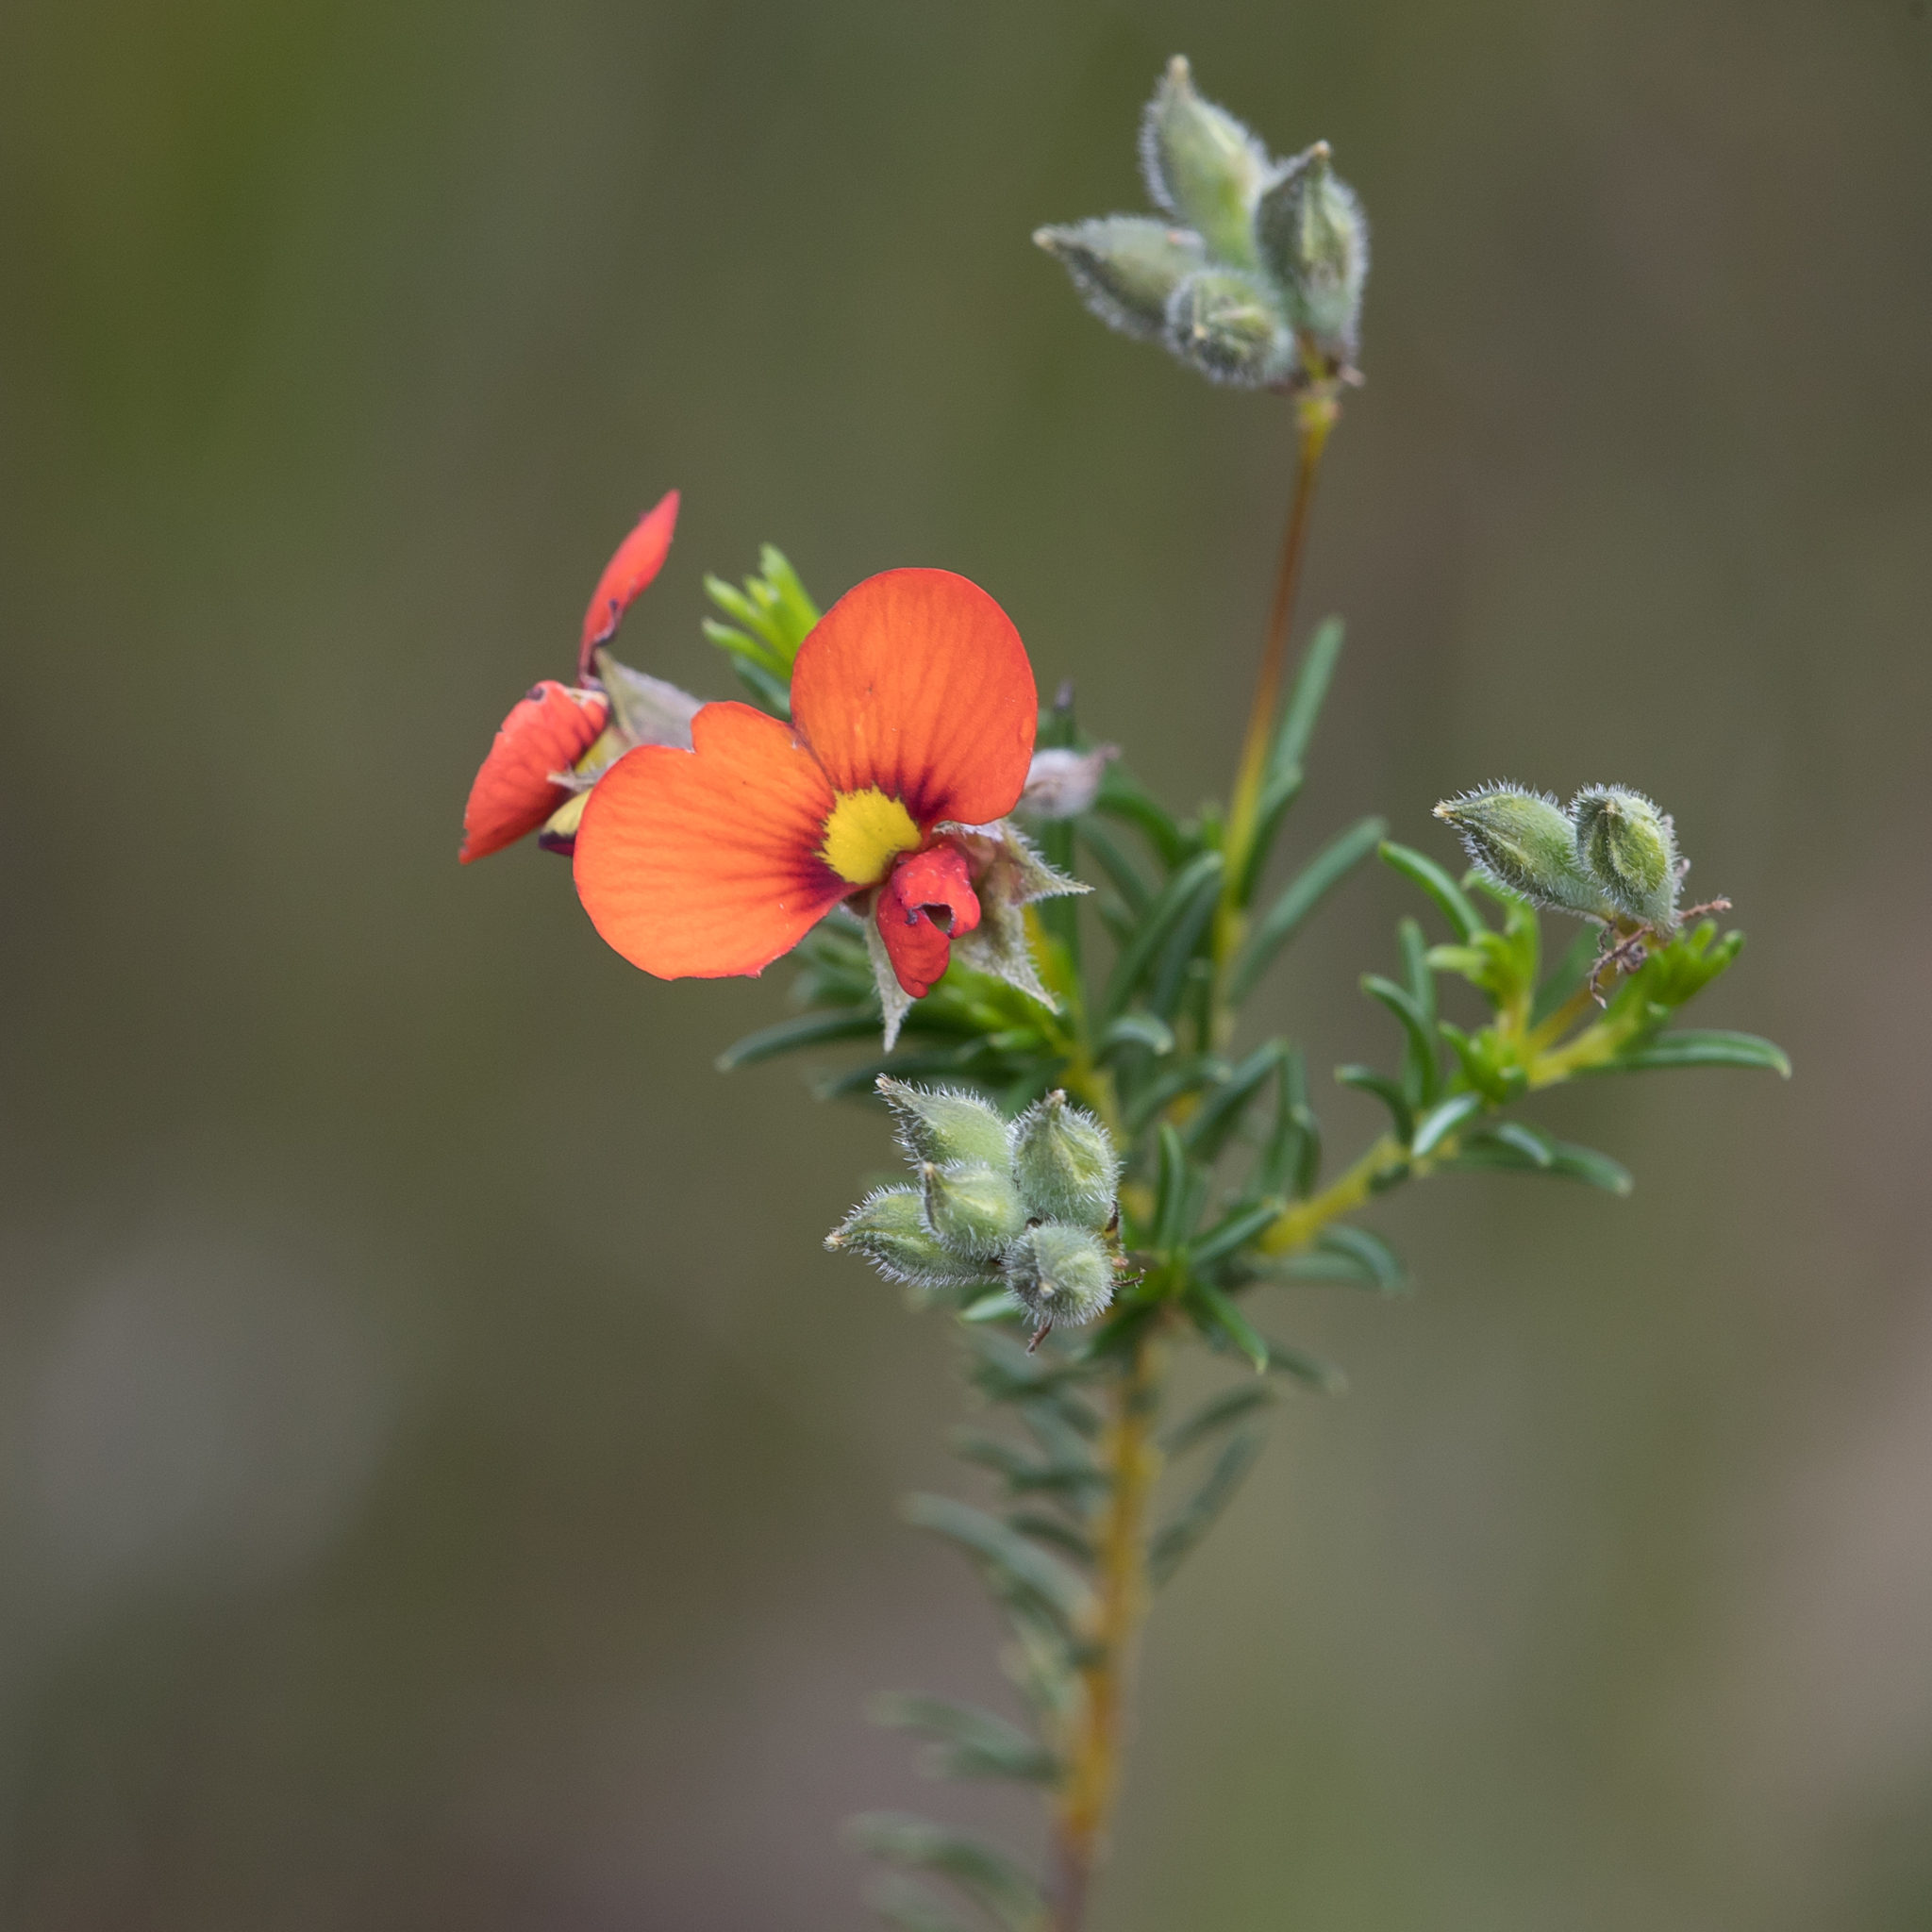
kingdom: Plantae
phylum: Tracheophyta
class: Magnoliopsida
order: Fabales
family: Fabaceae
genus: Dillwynia
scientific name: Dillwynia hispida
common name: Red parrot-pea
